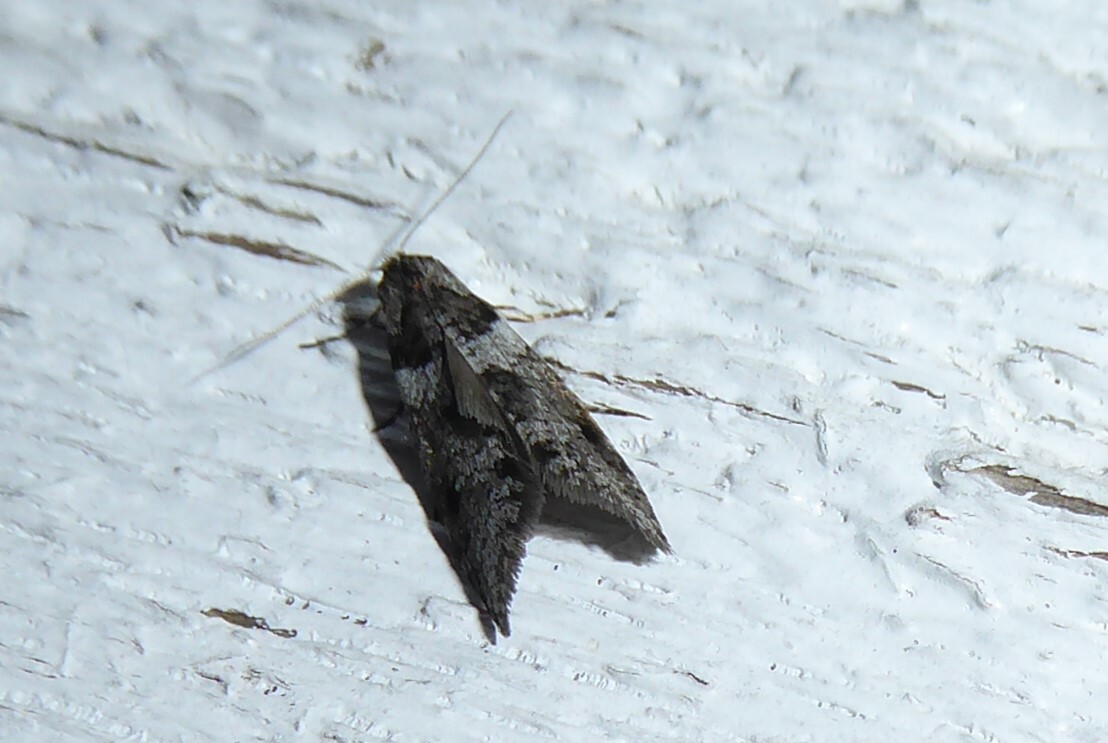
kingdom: Animalia
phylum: Arthropoda
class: Insecta
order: Lepidoptera
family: Psychidae
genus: Lepidoscia
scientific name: Lepidoscia heliochares
